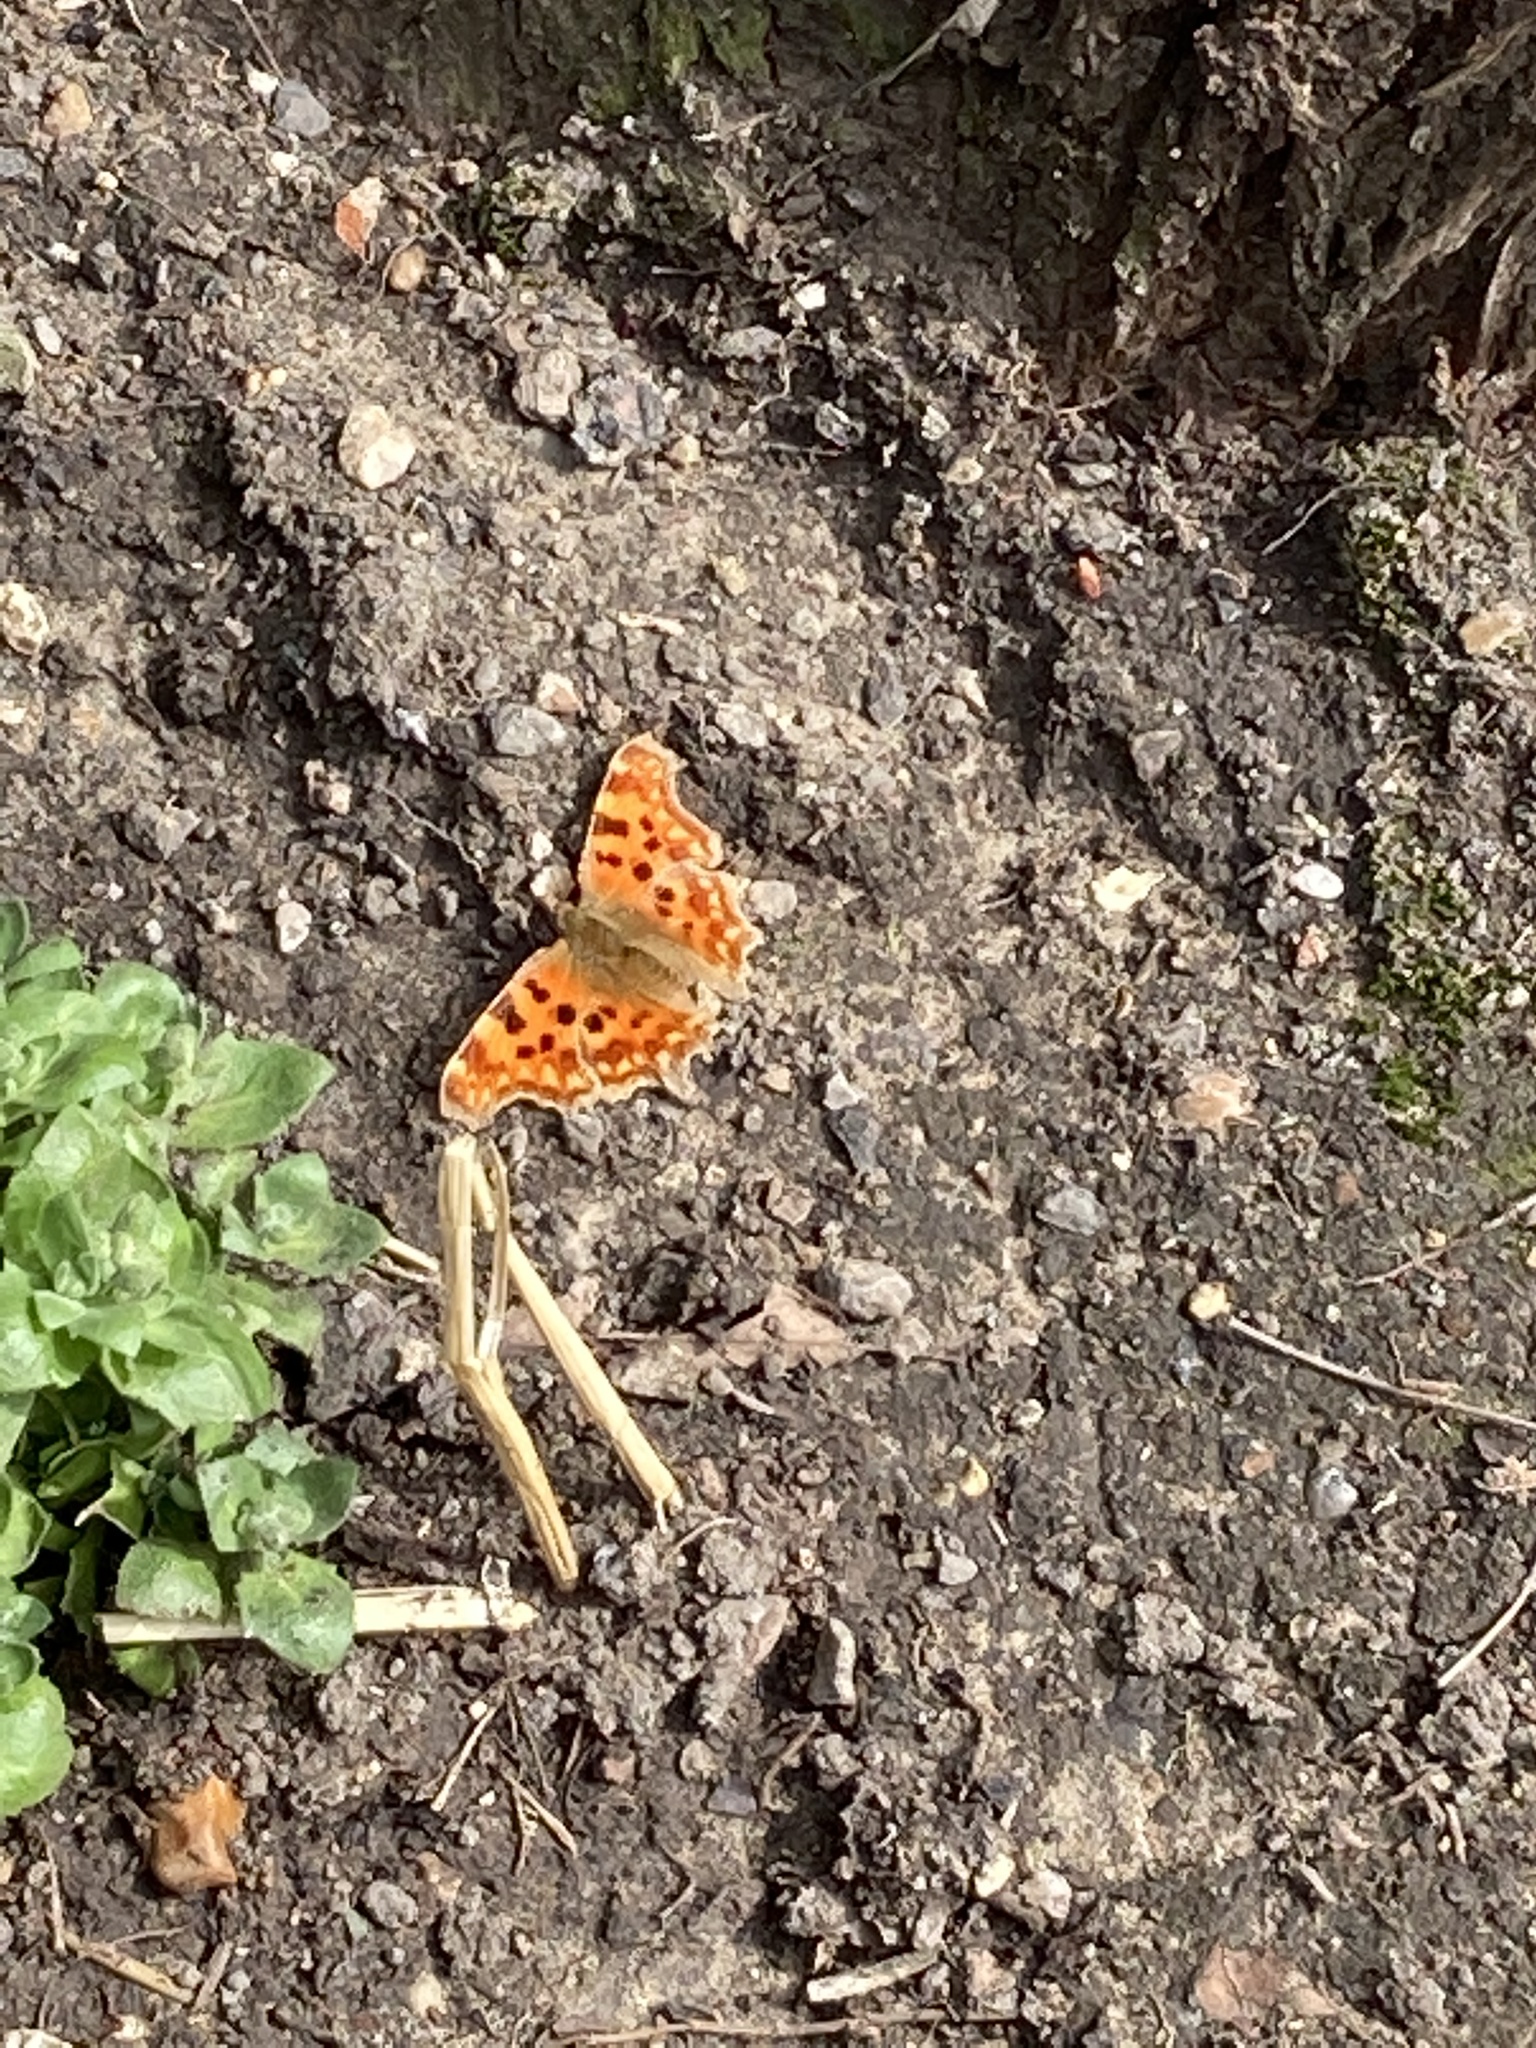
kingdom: Animalia
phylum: Arthropoda
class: Insecta
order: Lepidoptera
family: Nymphalidae
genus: Polygonia
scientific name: Polygonia c-album
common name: Comma
